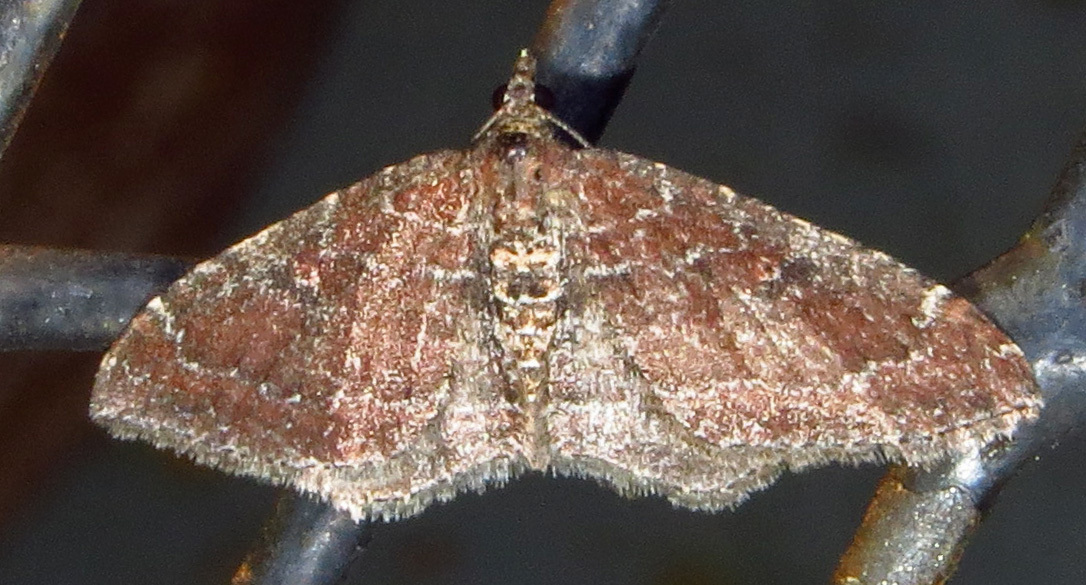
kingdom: Animalia
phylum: Arthropoda
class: Insecta
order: Lepidoptera
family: Geometridae
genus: Orthonama
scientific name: Orthonama obstipata
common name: The gem
